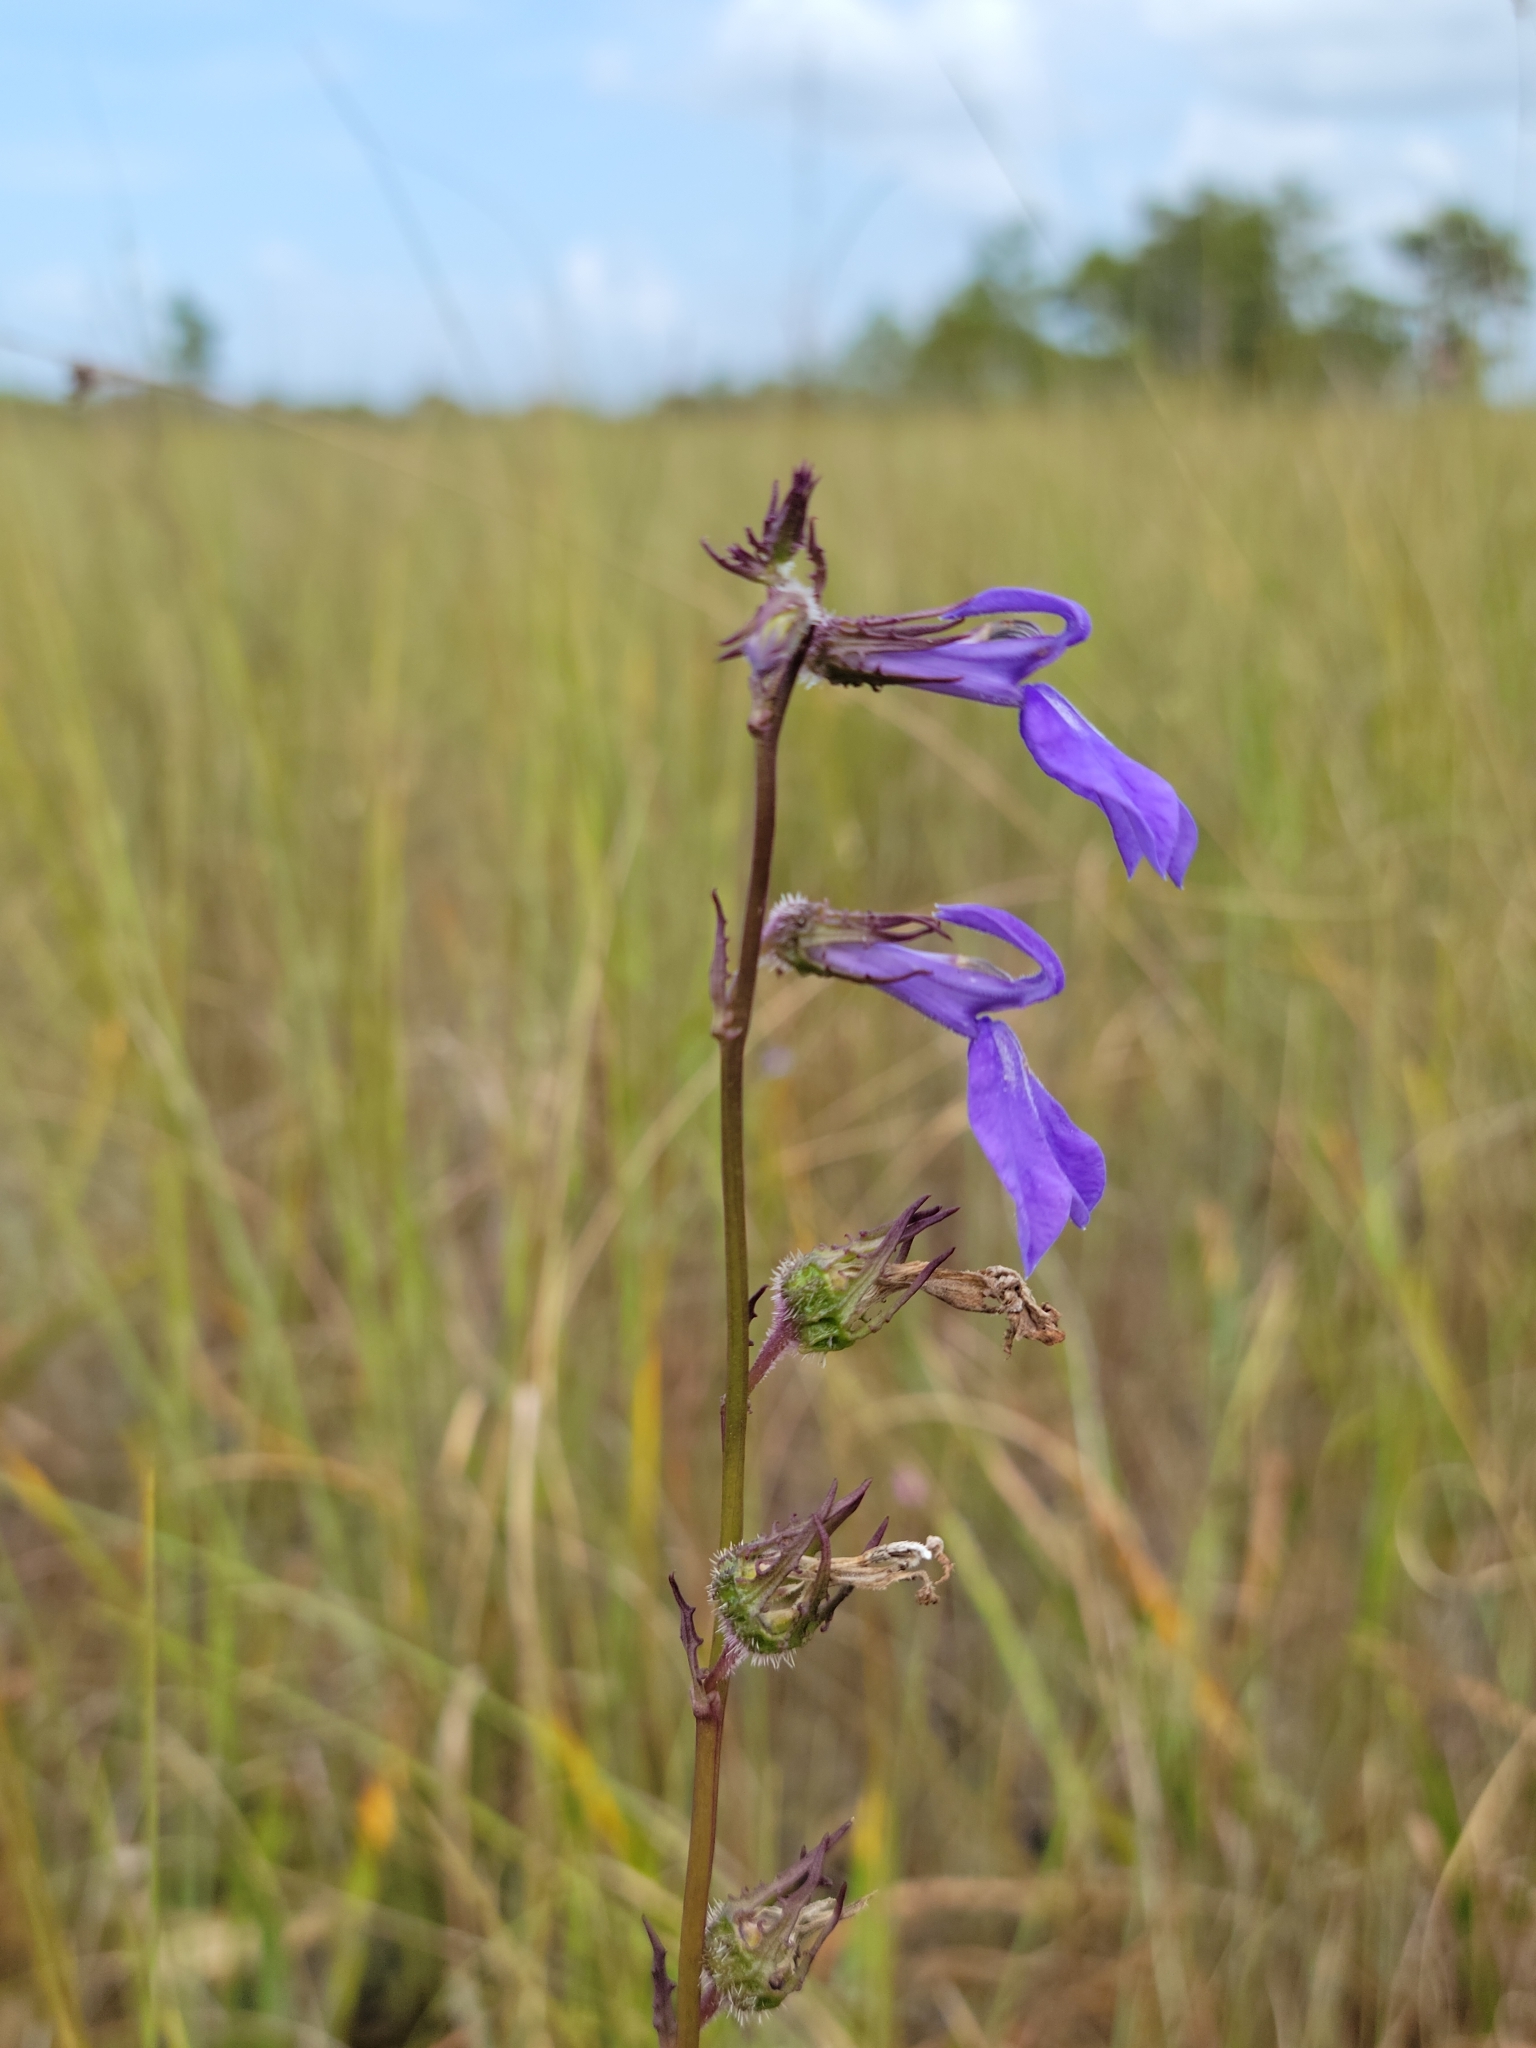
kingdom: Plantae
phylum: Tracheophyta
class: Magnoliopsida
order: Asterales
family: Campanulaceae
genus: Lobelia
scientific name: Lobelia glandulosa
